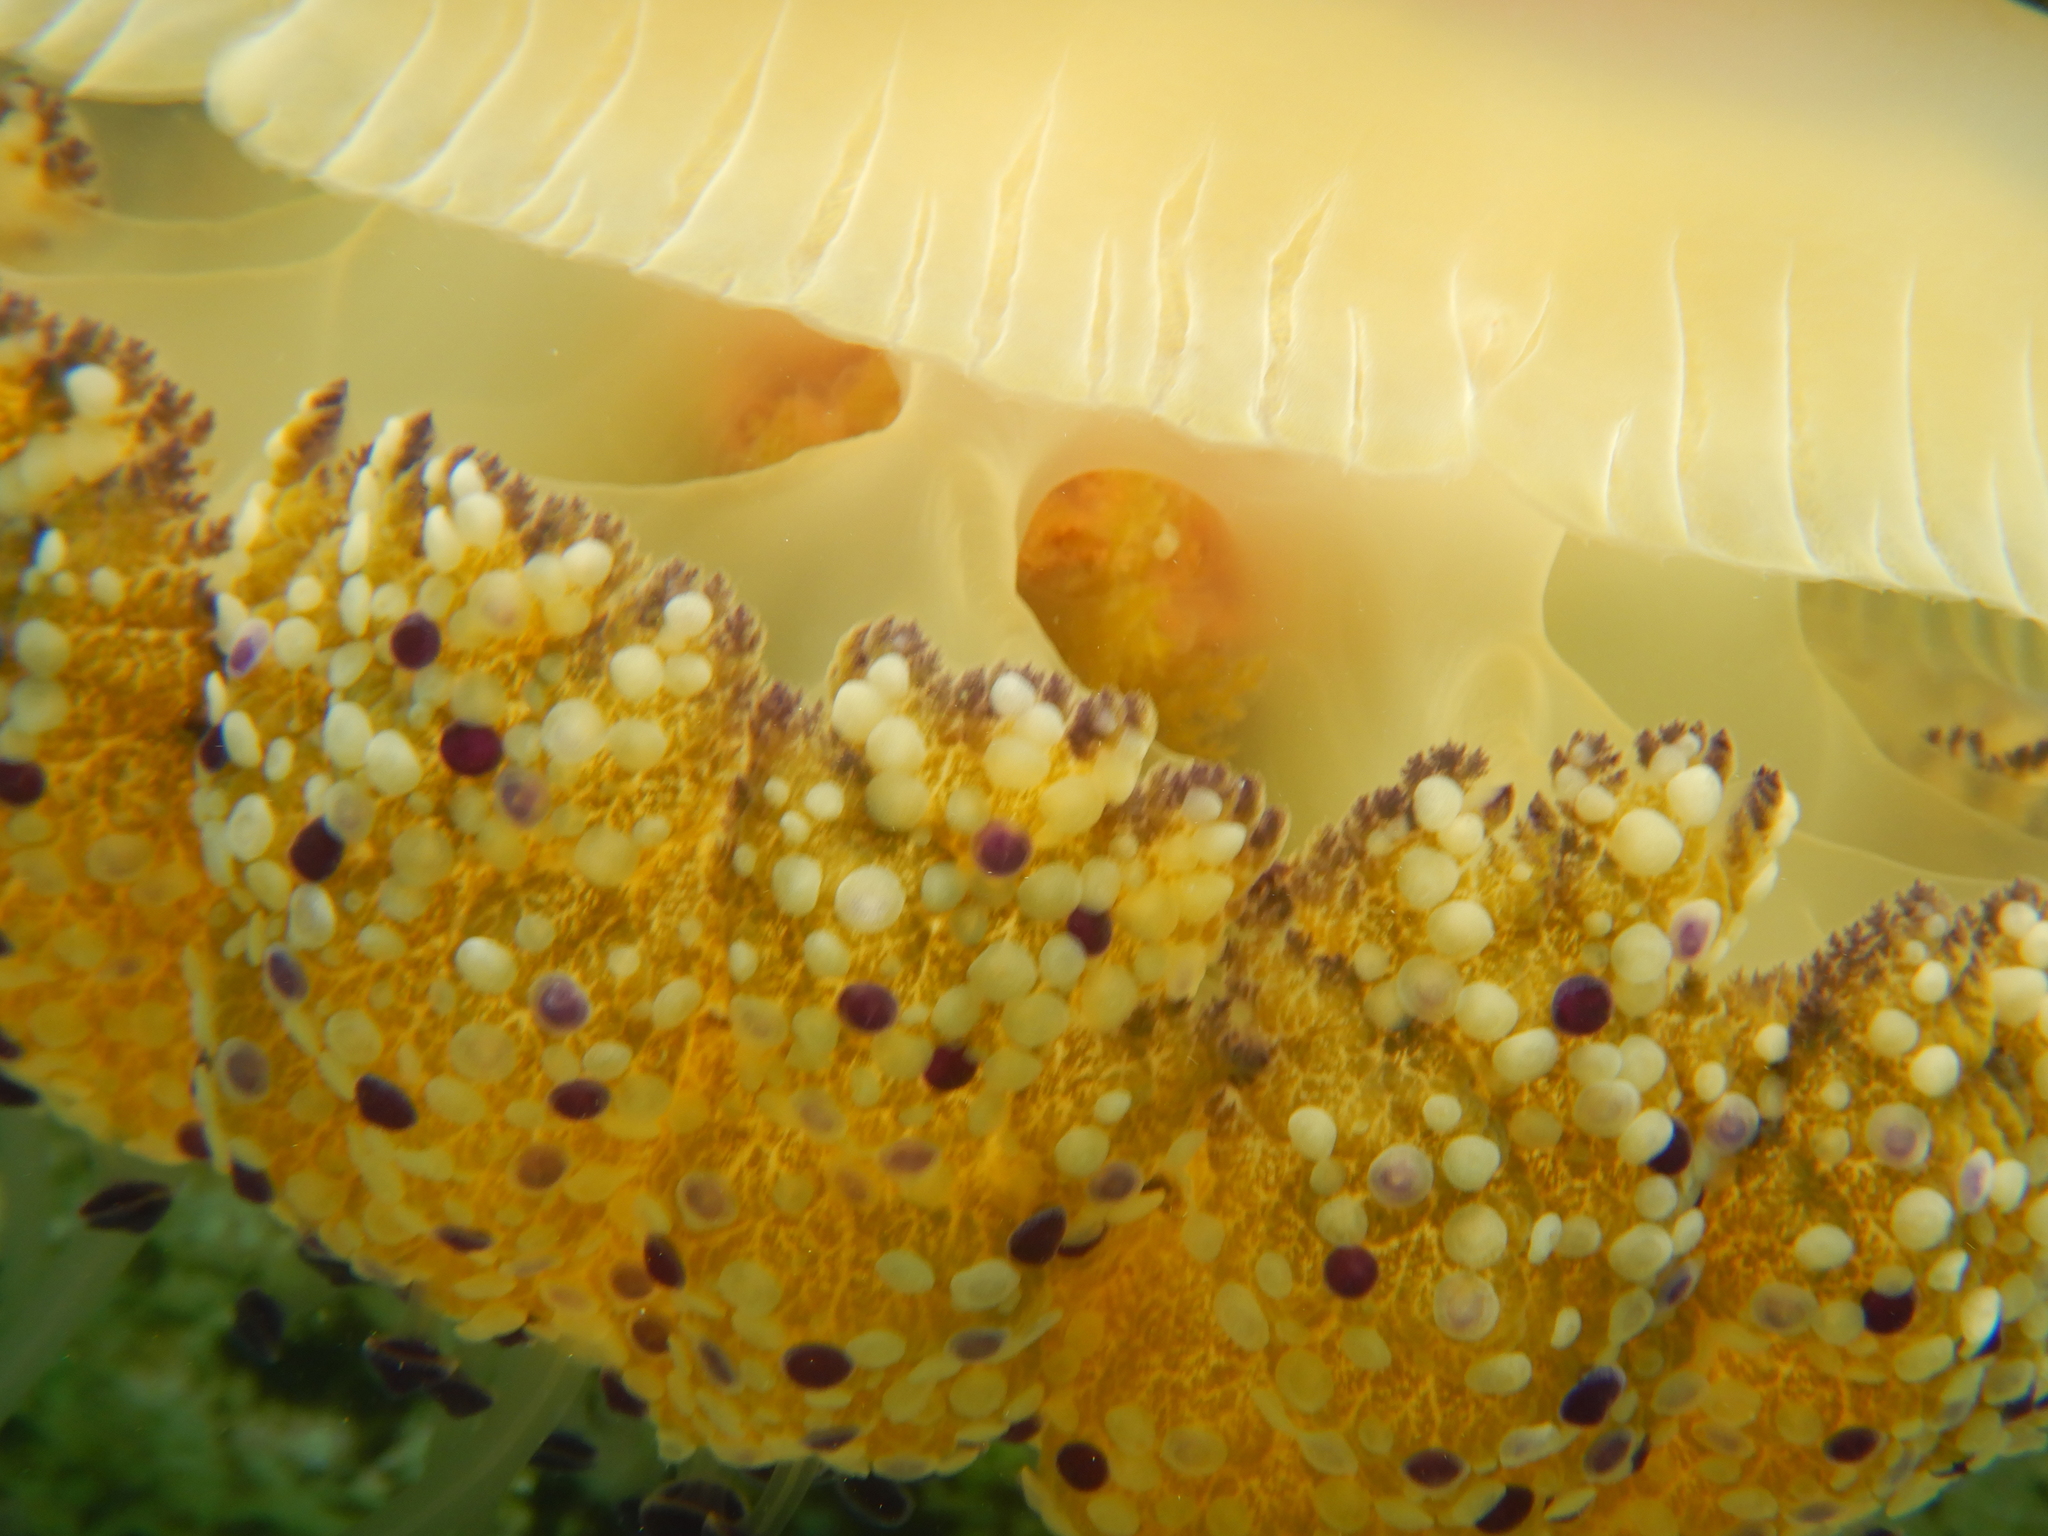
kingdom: Animalia
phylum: Cnidaria
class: Scyphozoa
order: Rhizostomeae
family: Cepheidae
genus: Cotylorhiza
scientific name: Cotylorhiza tuberculata
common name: Mediterranean jelly
